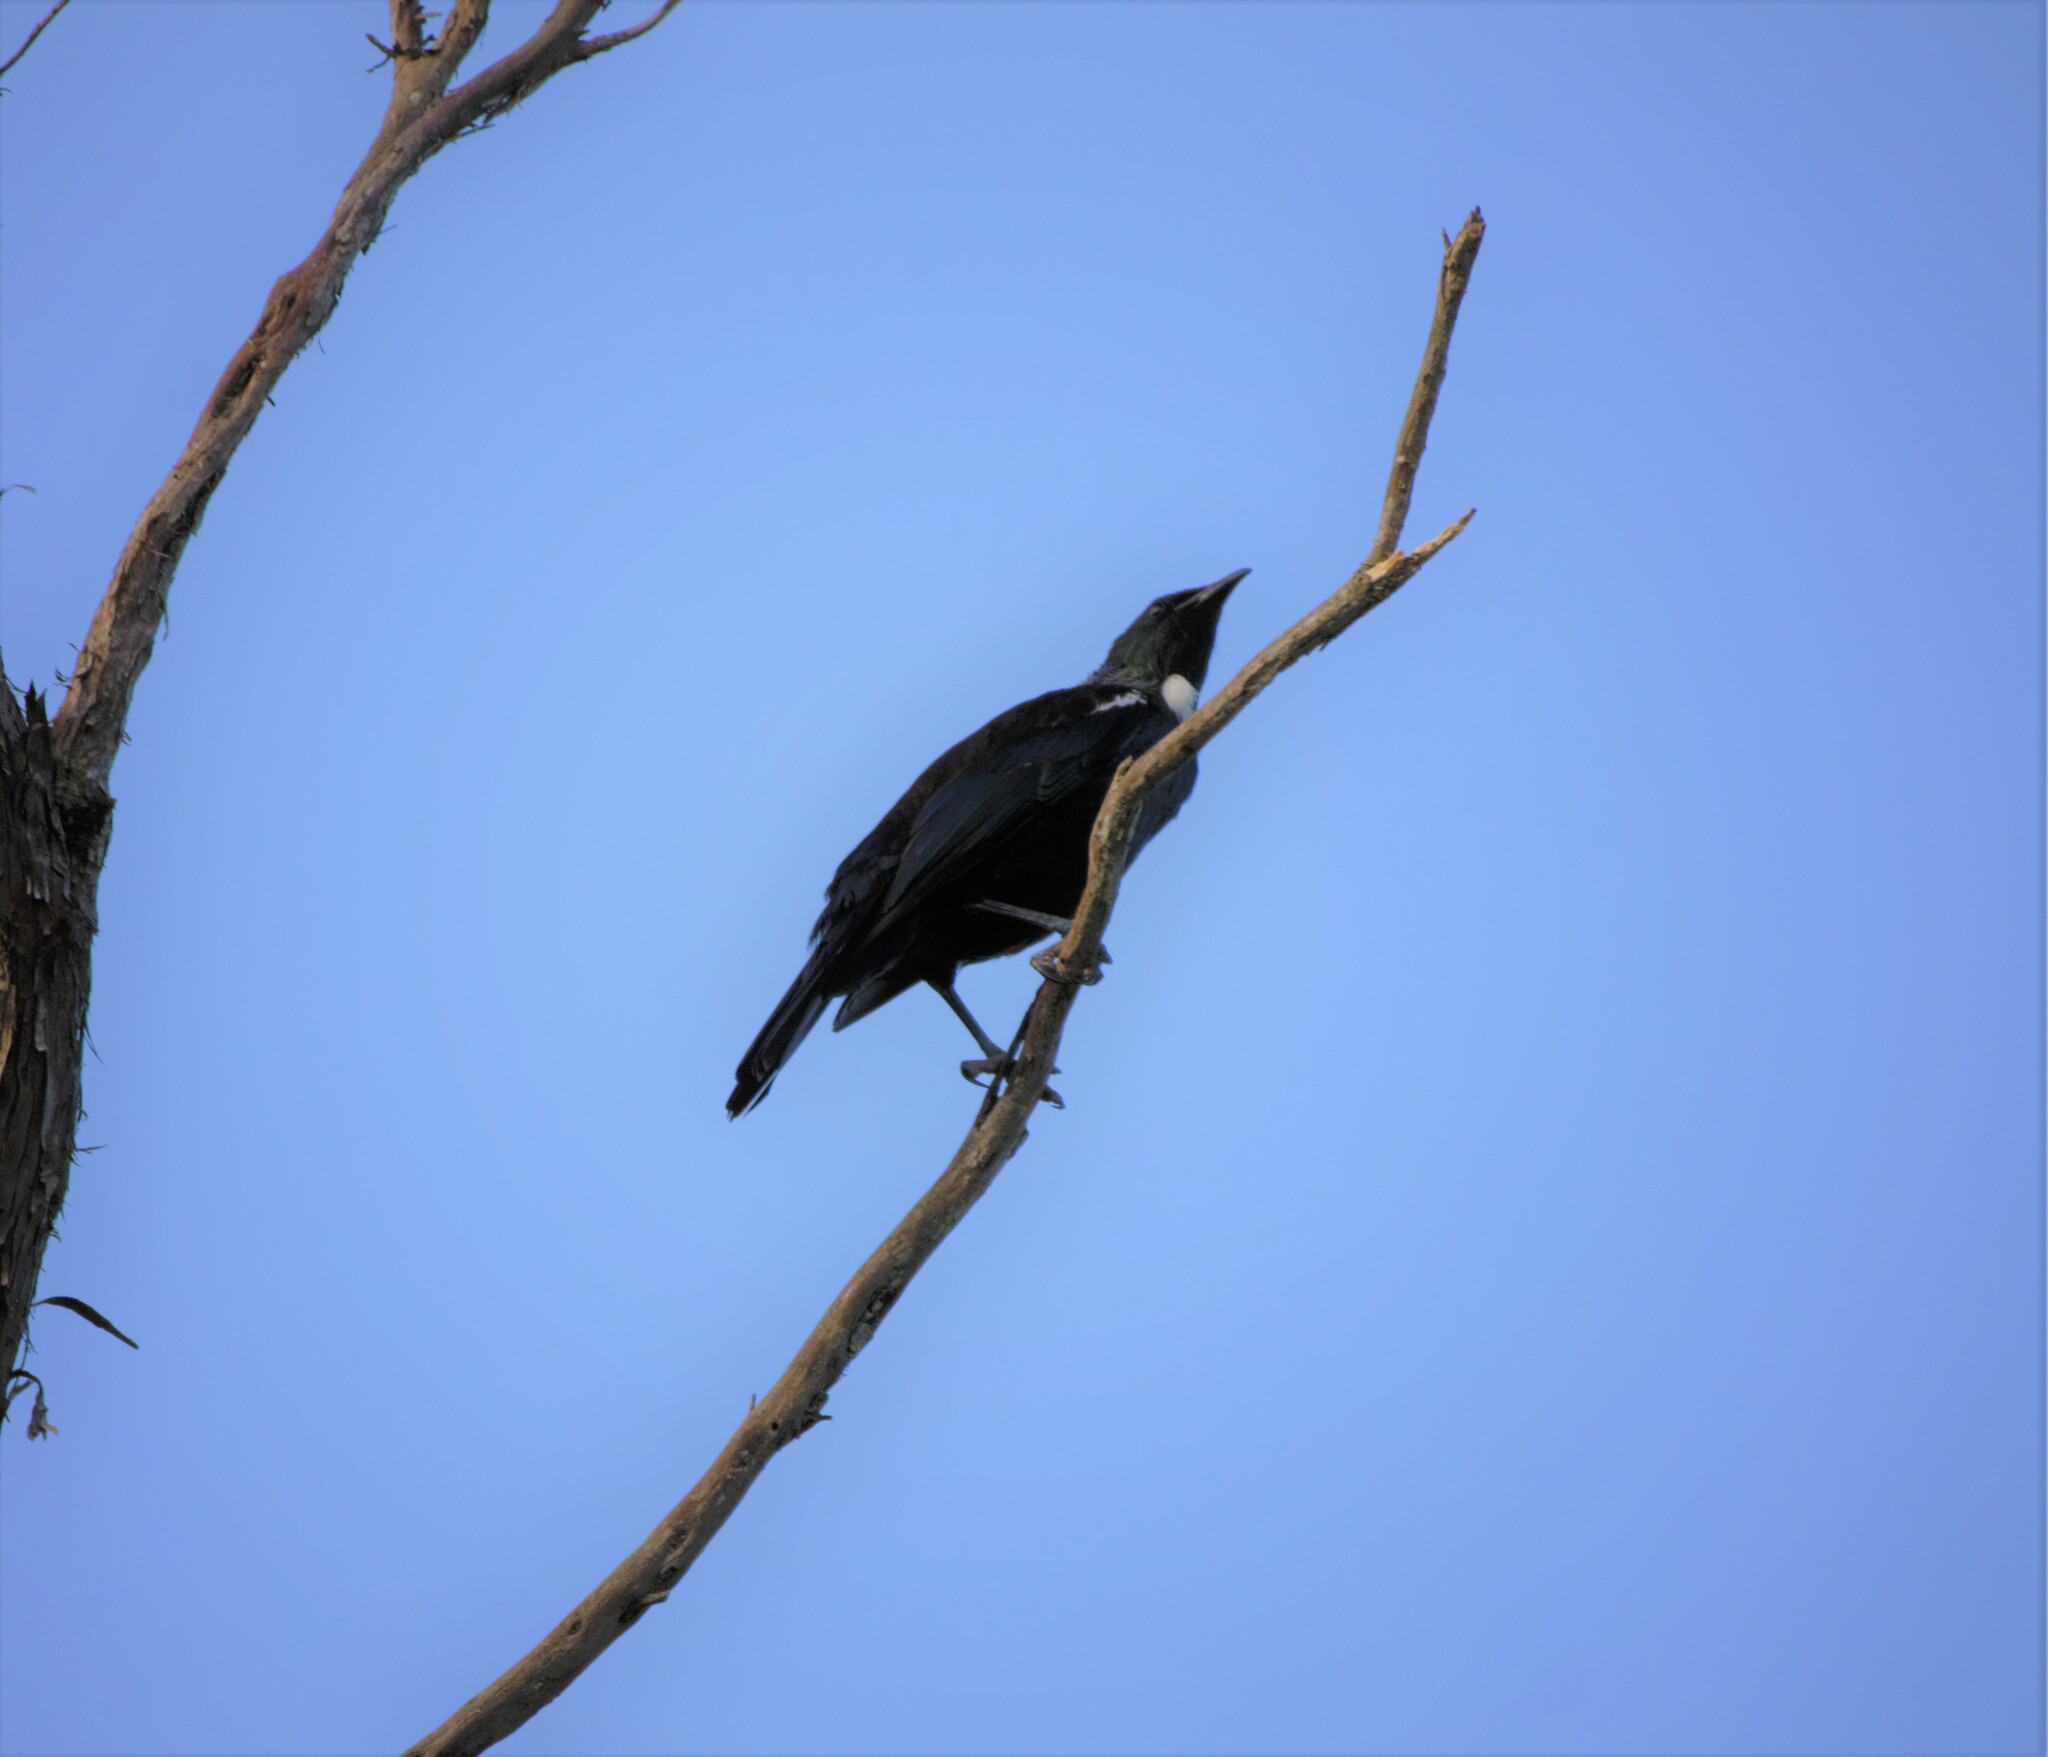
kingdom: Animalia
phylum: Chordata
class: Aves
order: Passeriformes
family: Meliphagidae
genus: Prosthemadera
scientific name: Prosthemadera novaeseelandiae
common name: Tui
